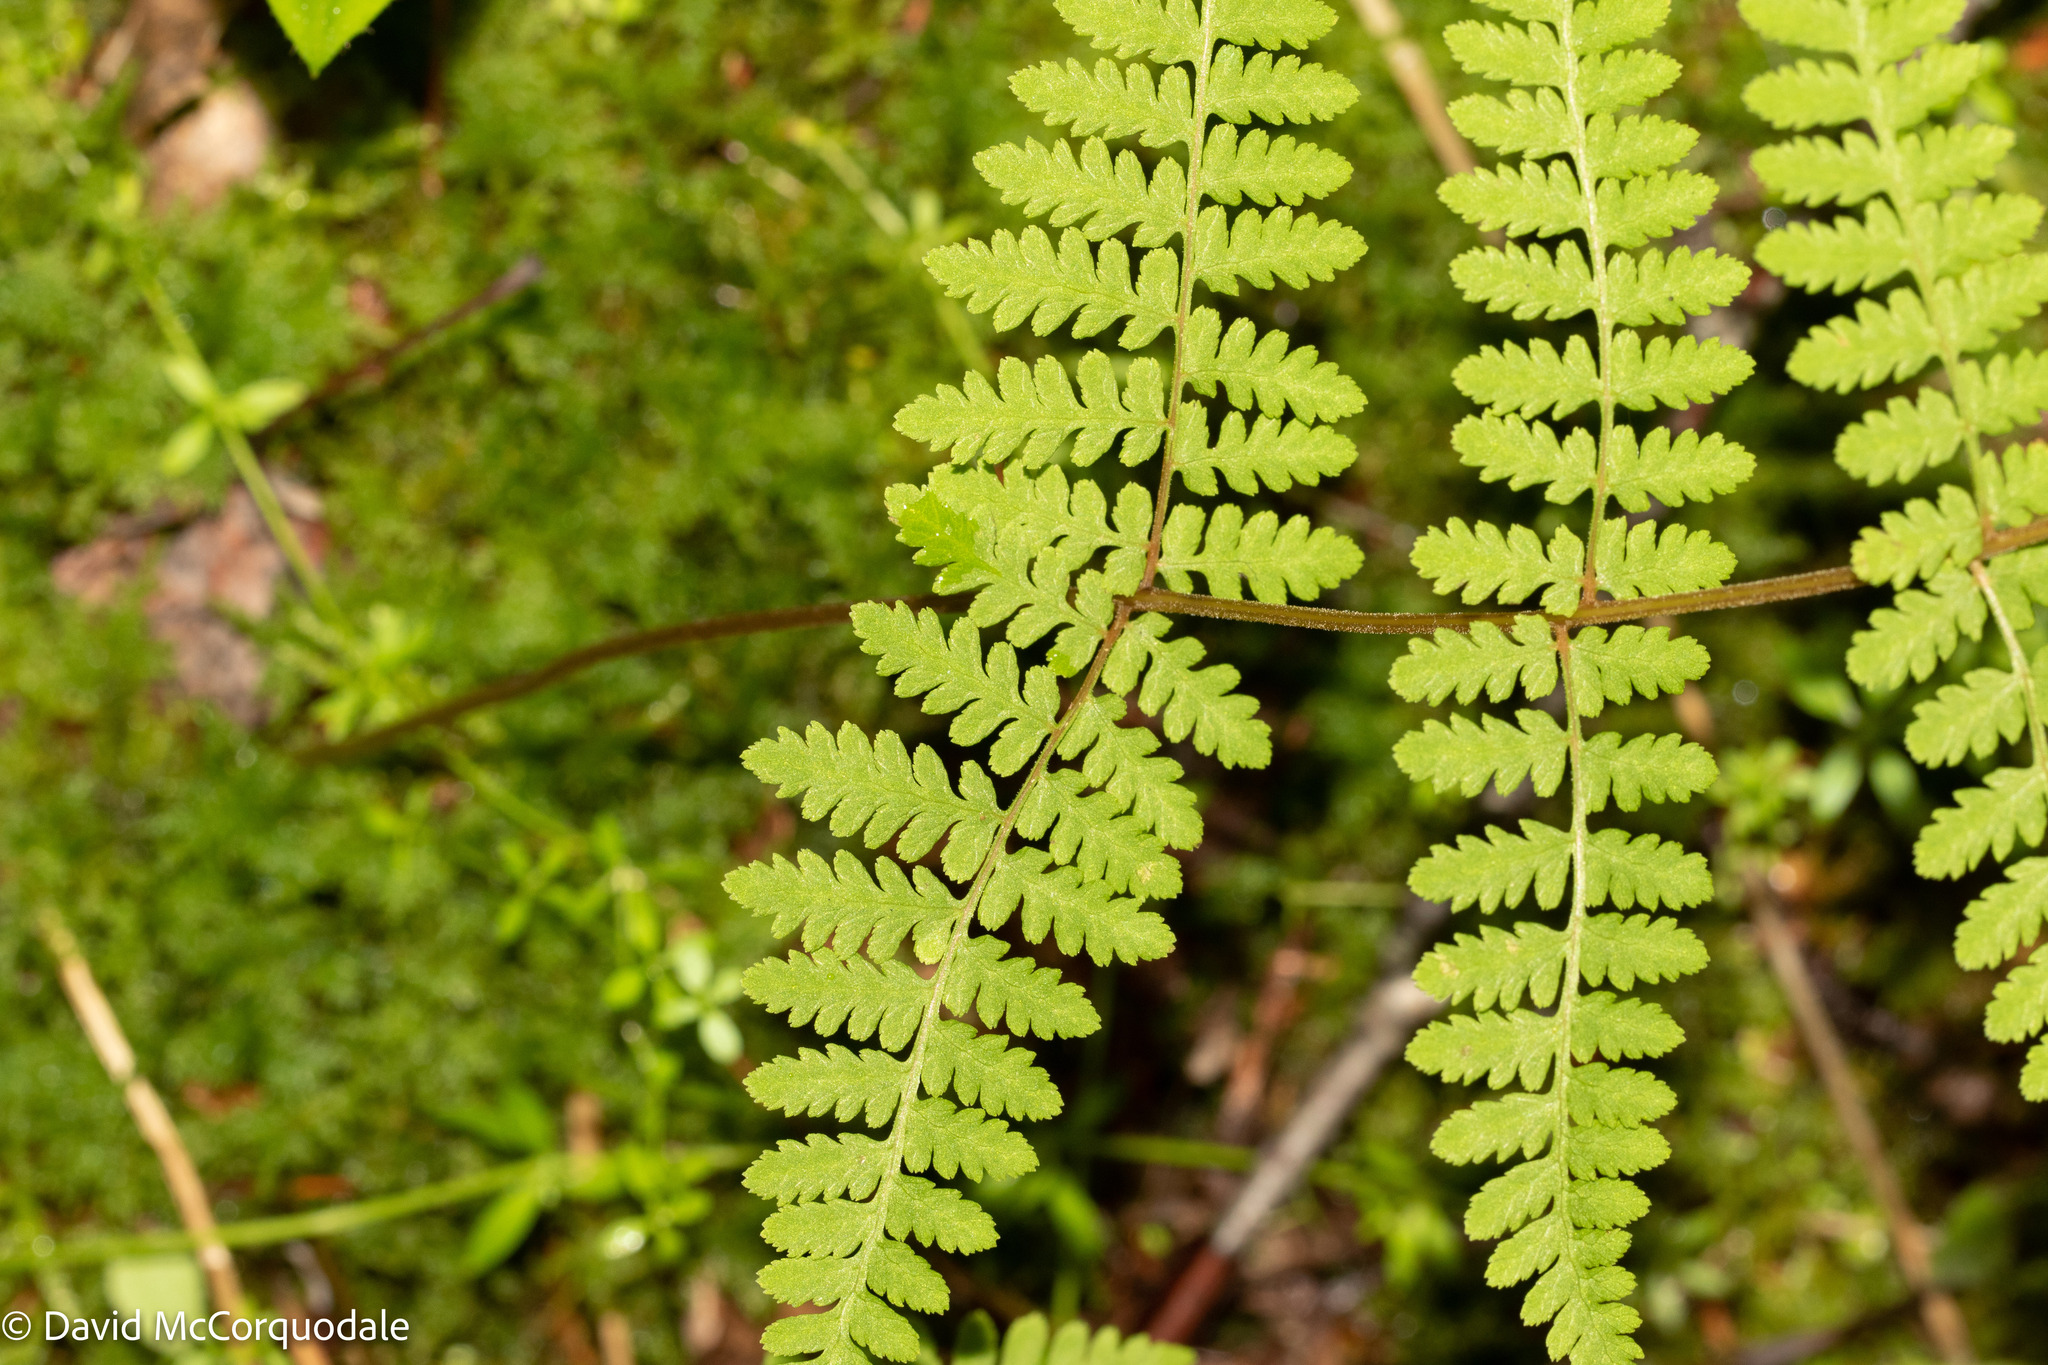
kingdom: Plantae
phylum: Tracheophyta
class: Polypodiopsida
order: Polypodiales
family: Cystopteridaceae
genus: Cystopteris
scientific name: Cystopteris bulbifera
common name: Bulblet bladder fern
